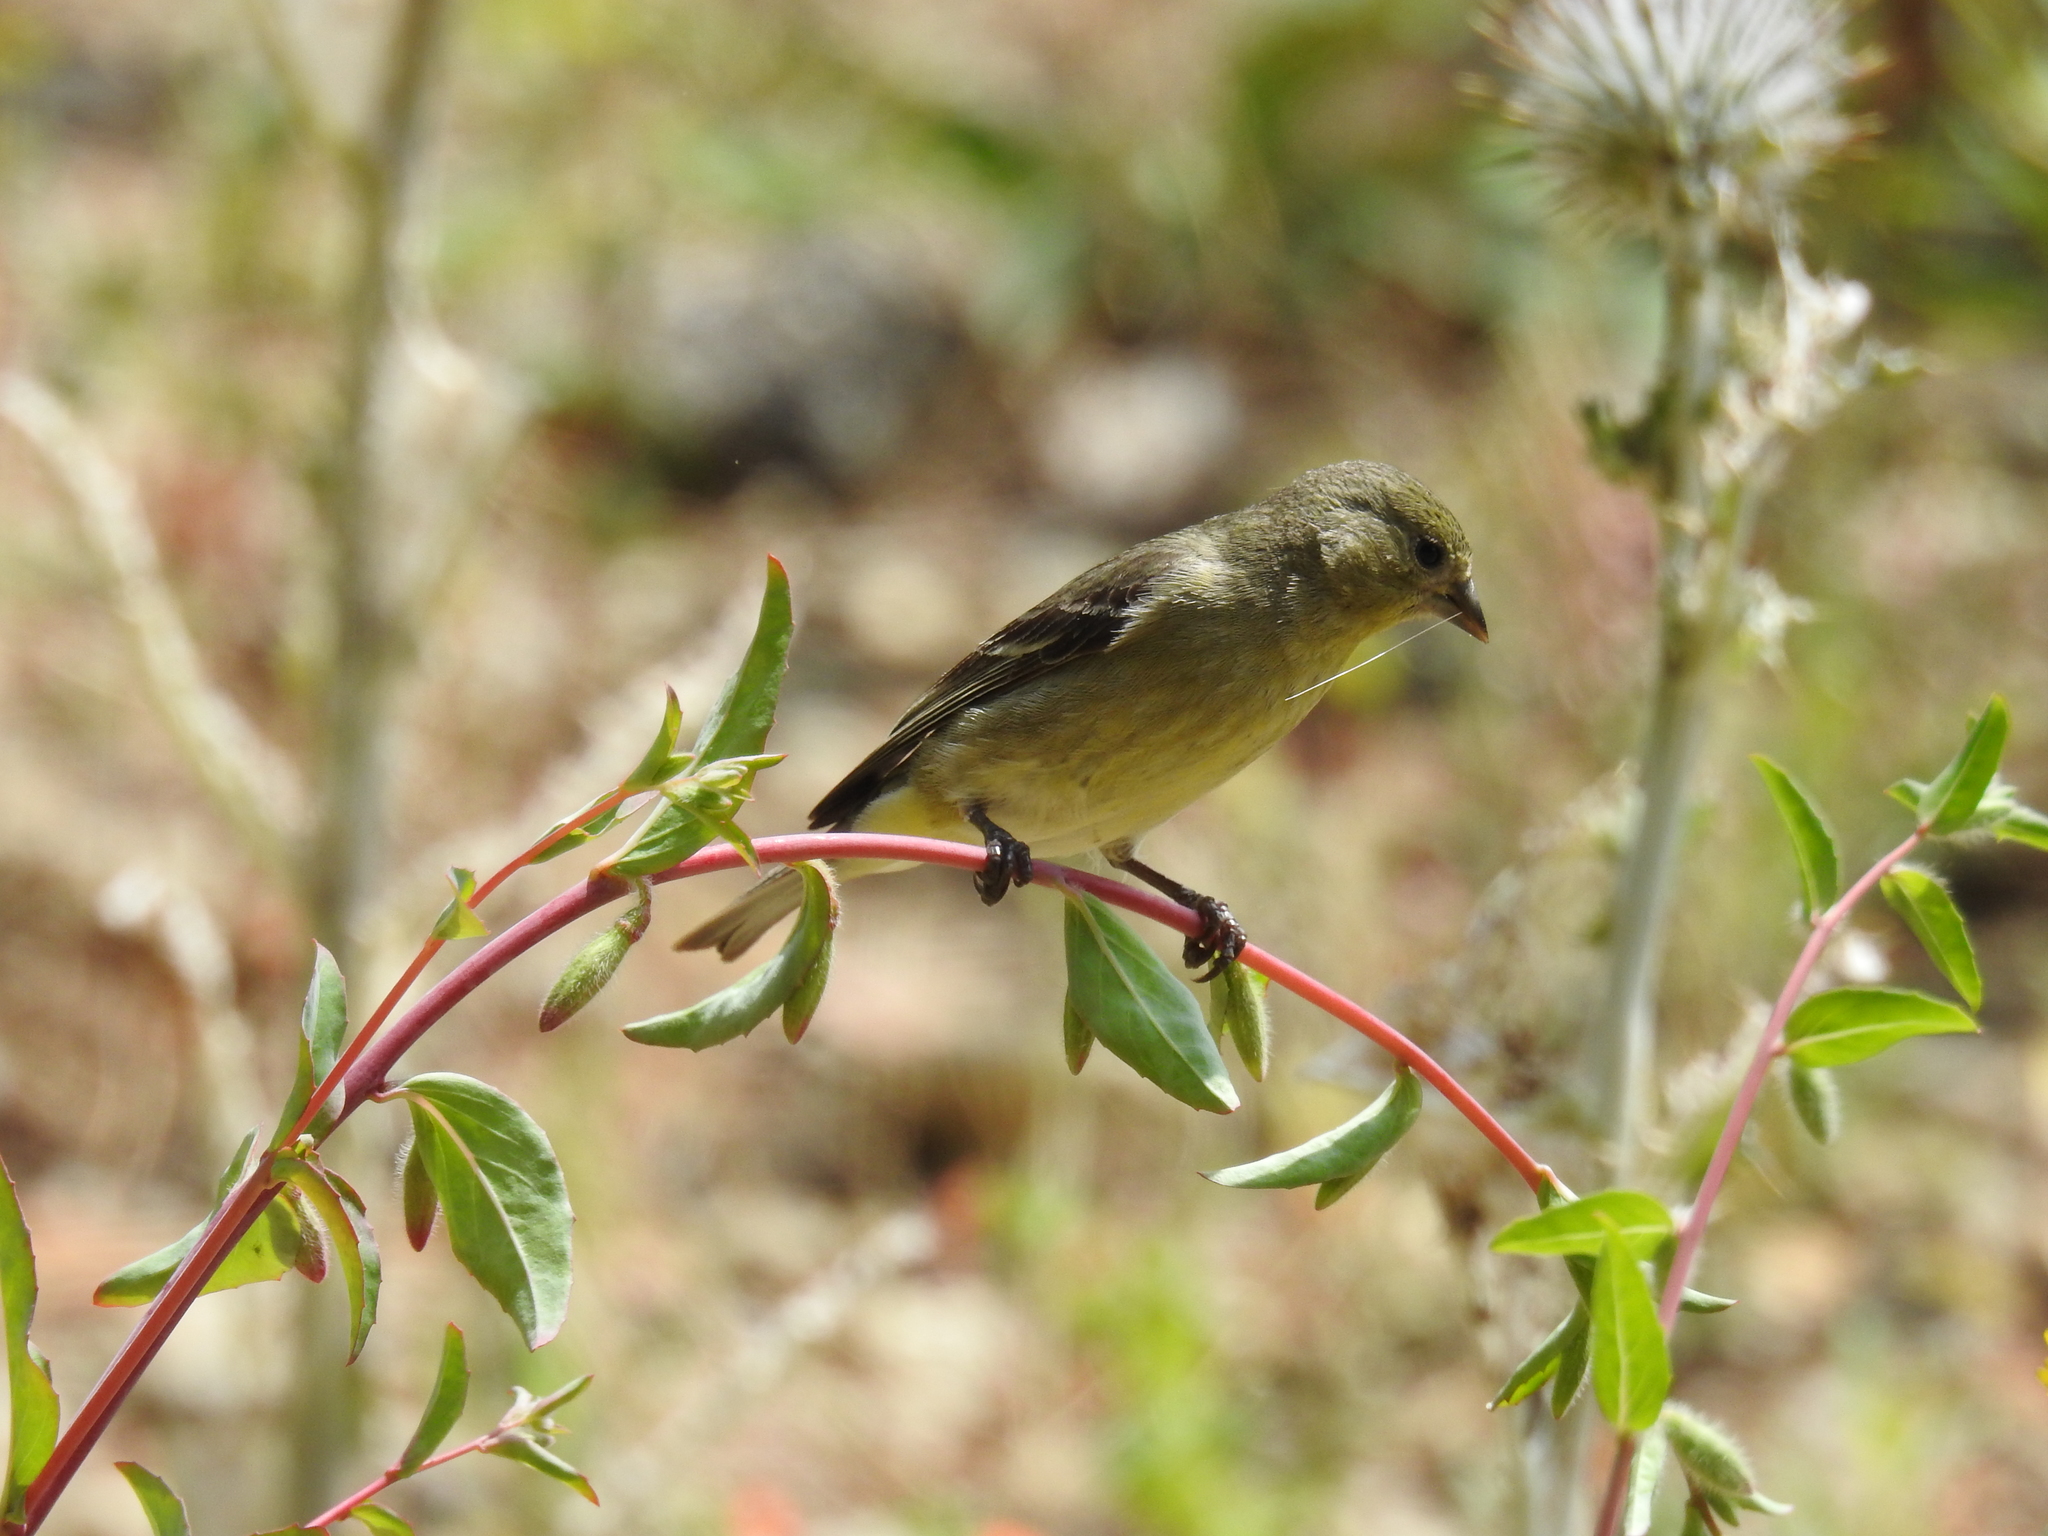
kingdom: Animalia
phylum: Chordata
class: Aves
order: Passeriformes
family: Fringillidae
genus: Spinus
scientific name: Spinus psaltria
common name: Lesser goldfinch
